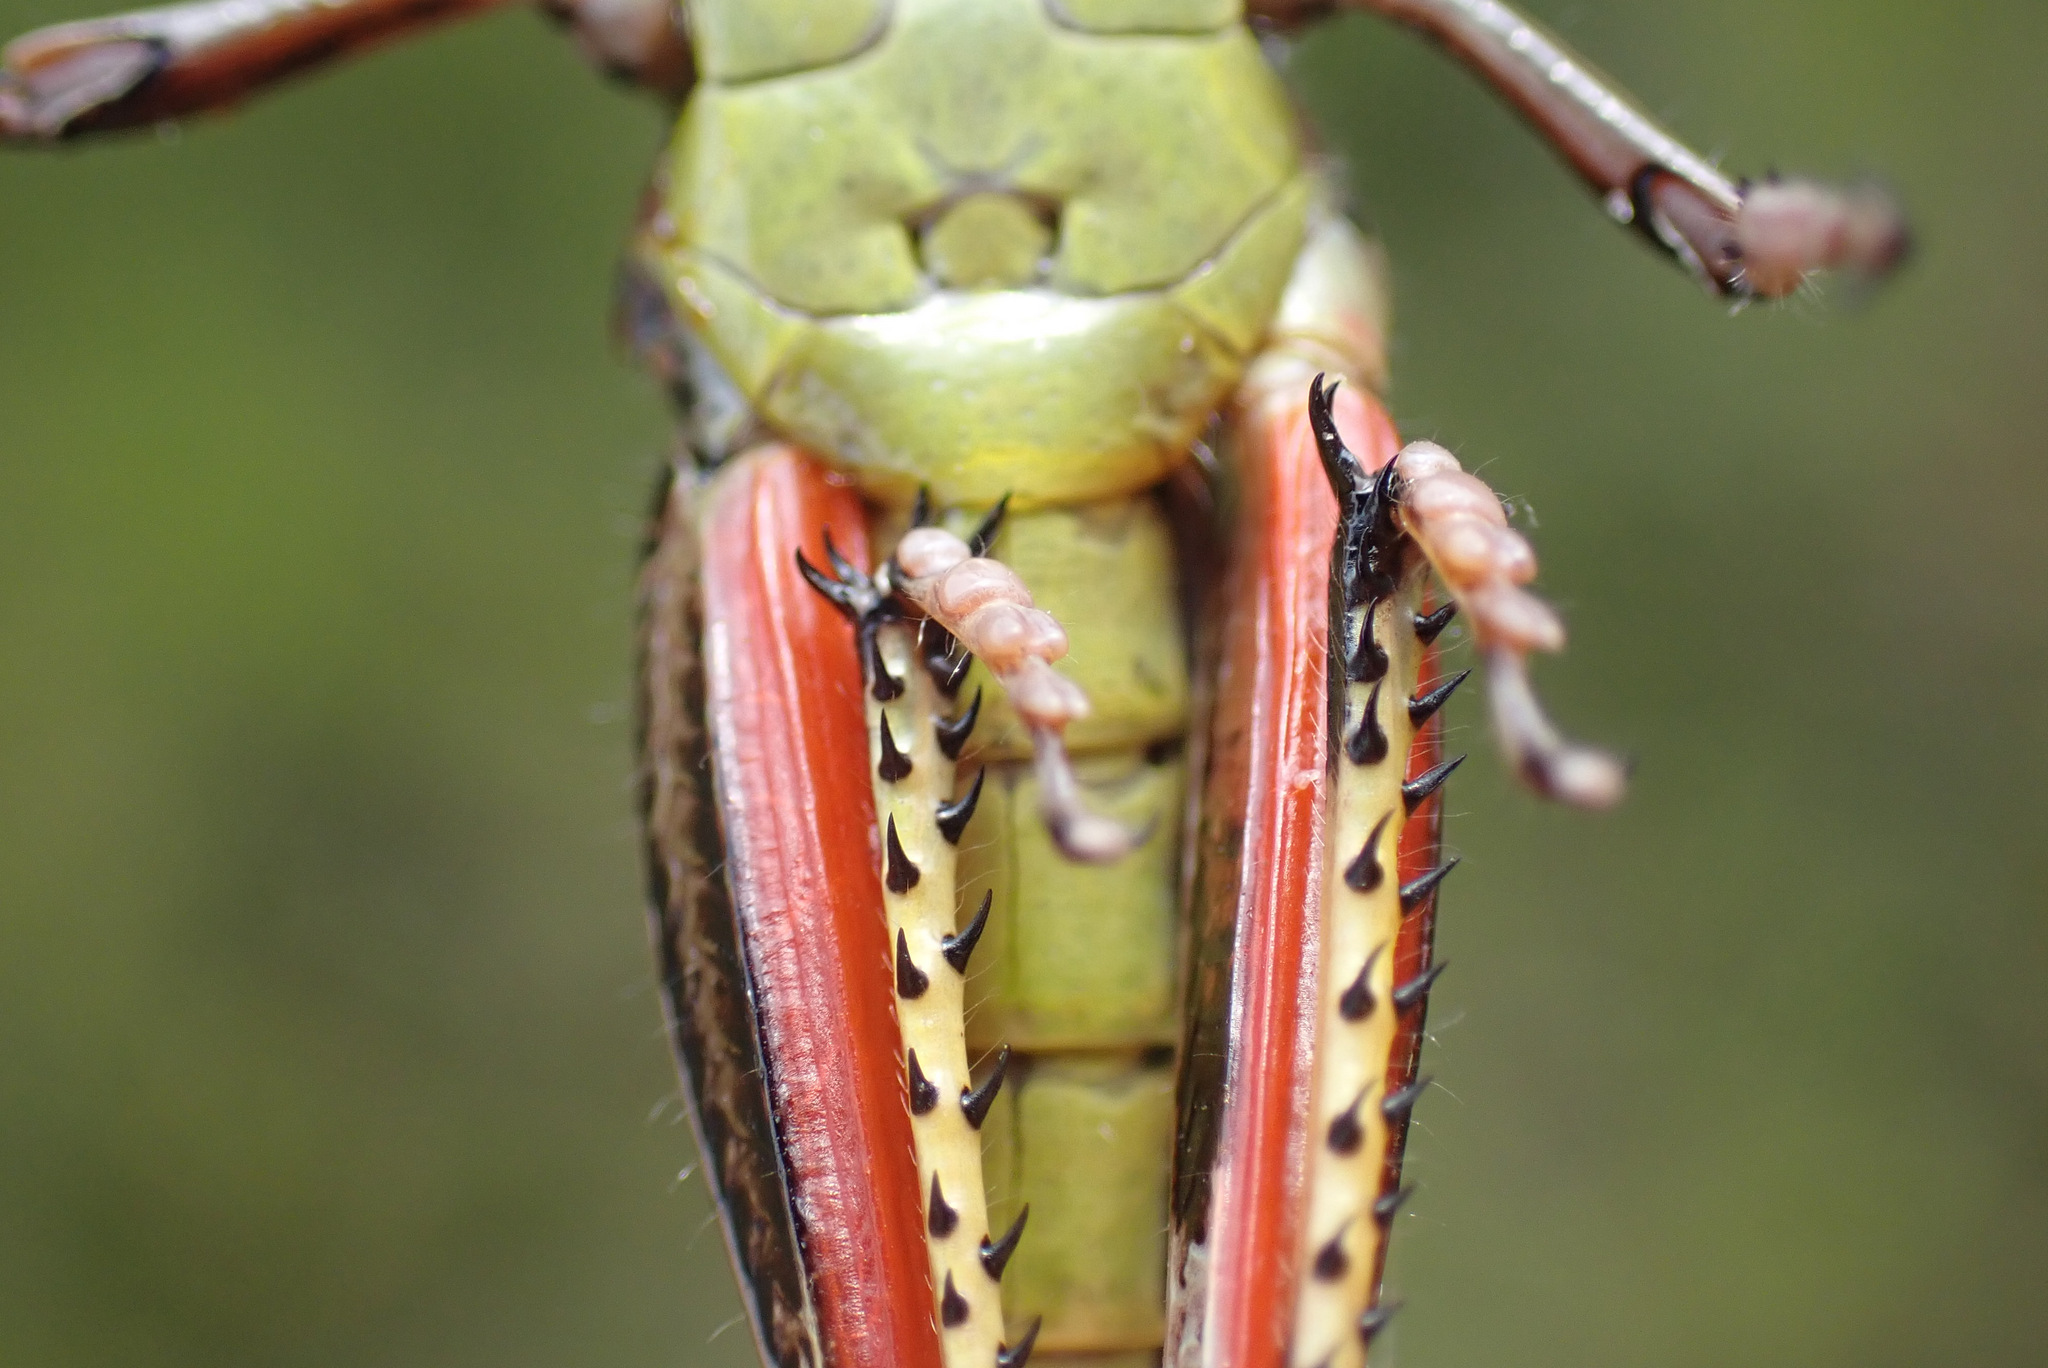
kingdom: Animalia
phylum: Arthropoda
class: Insecta
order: Orthoptera
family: Acrididae
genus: Stethophyma
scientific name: Stethophyma grossum
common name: Large marsh grasshopper
